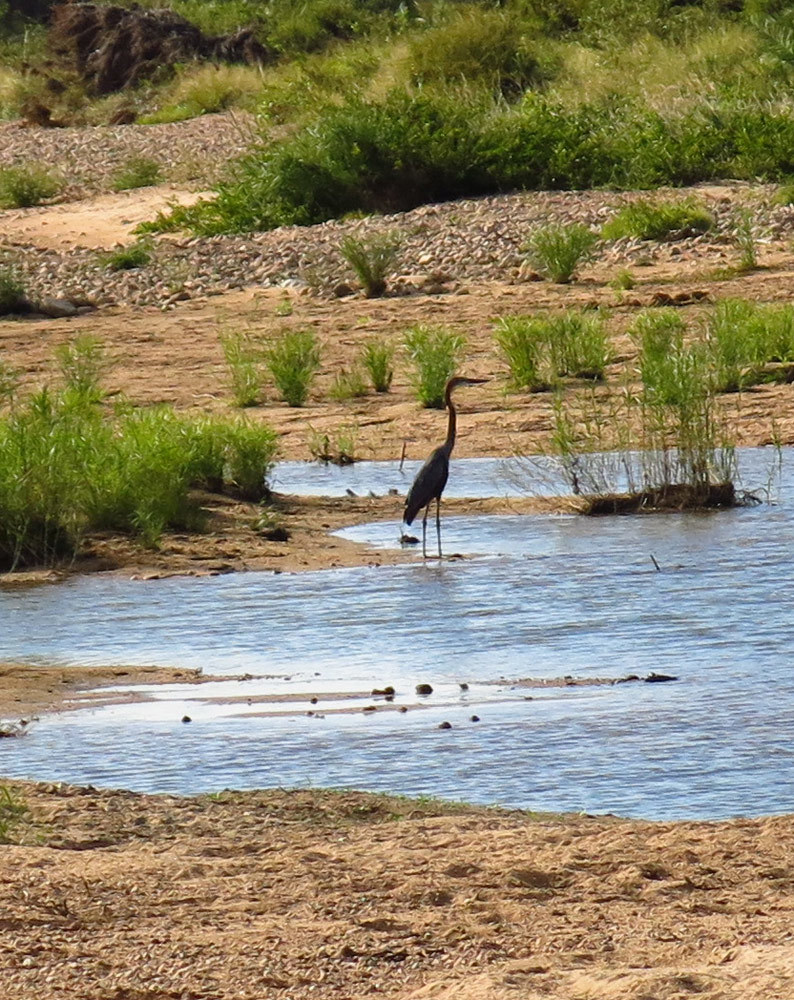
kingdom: Animalia
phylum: Chordata
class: Aves
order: Pelecaniformes
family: Ardeidae
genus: Ardea
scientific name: Ardea goliath
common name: Goliath heron
